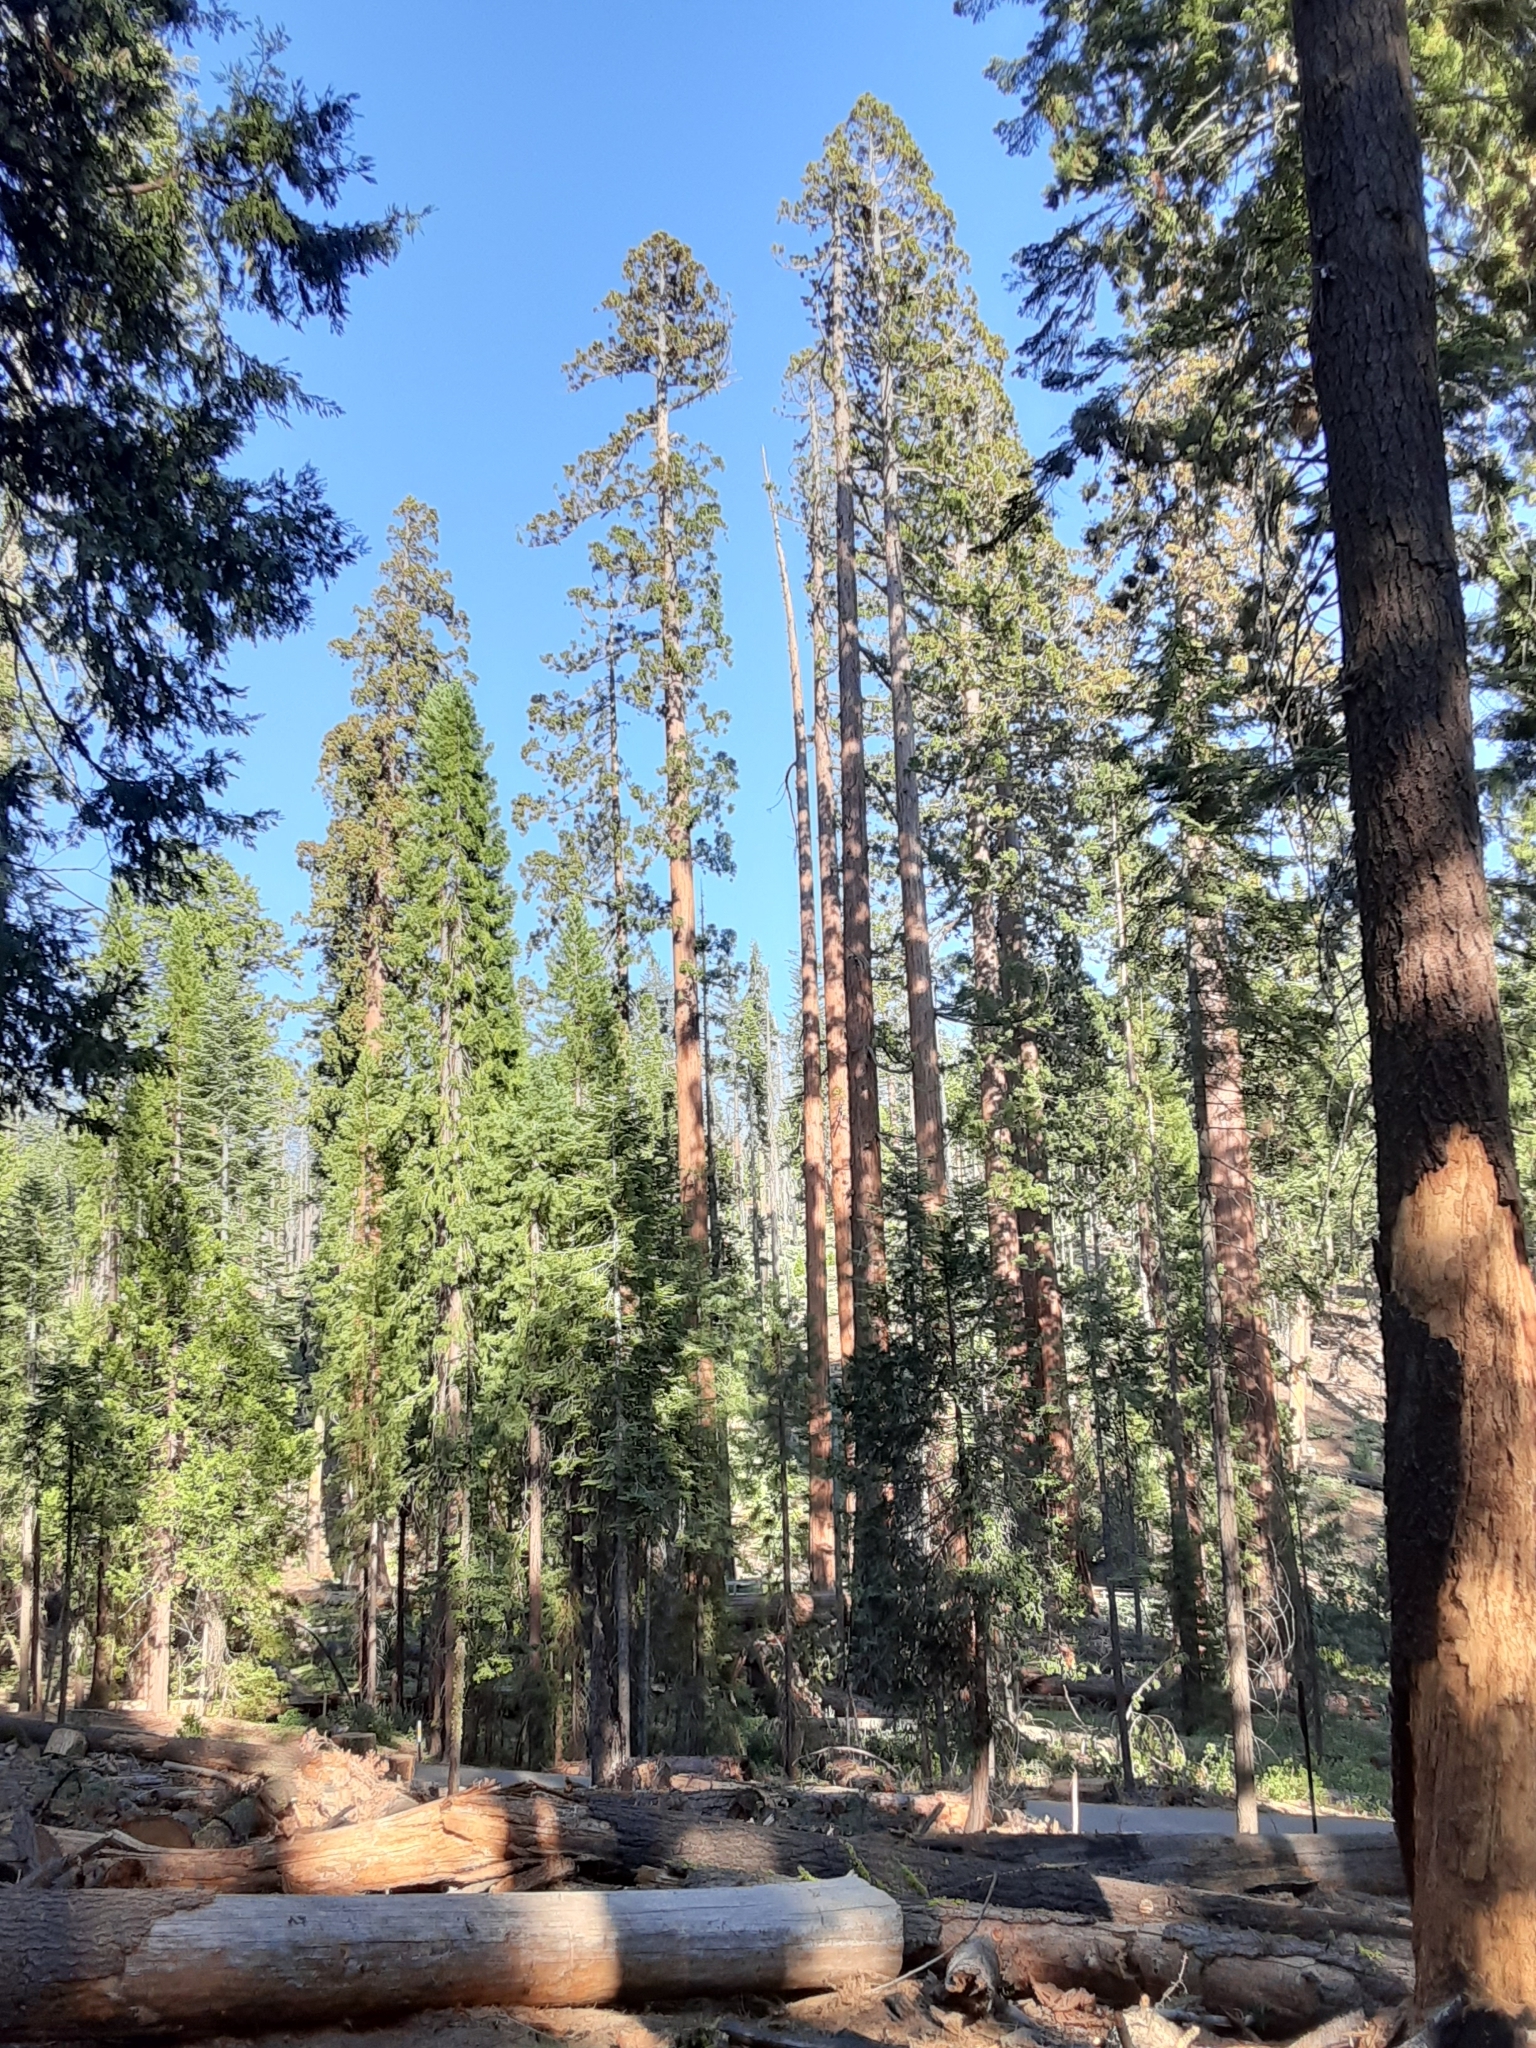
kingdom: Plantae
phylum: Tracheophyta
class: Pinopsida
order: Pinales
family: Cupressaceae
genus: Sequoiadendron
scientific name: Sequoiadendron giganteum
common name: Wellingtonia
